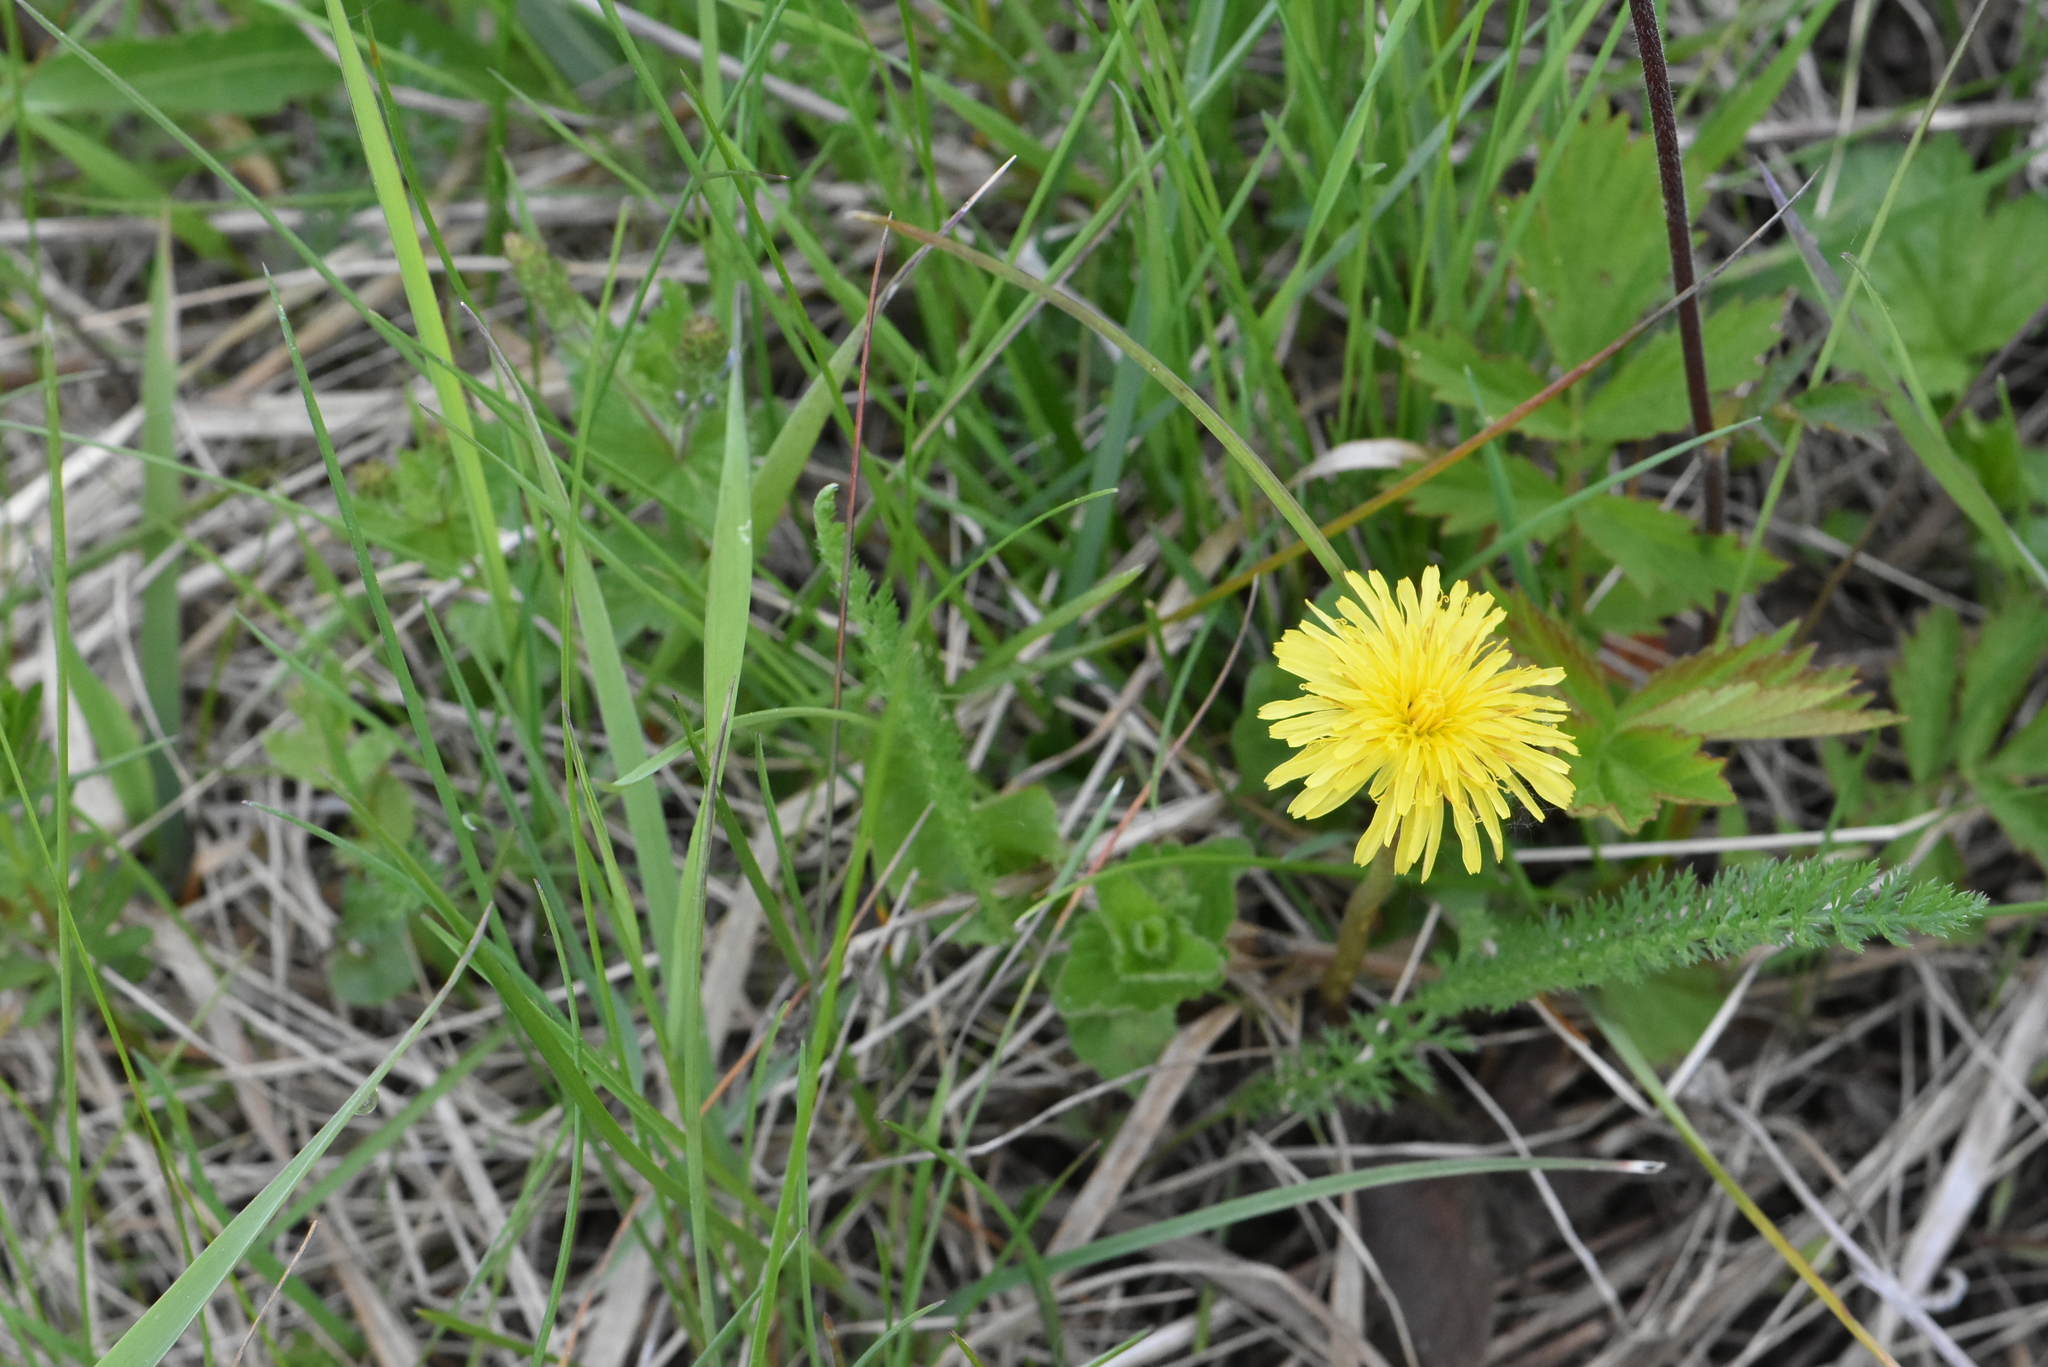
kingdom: Plantae
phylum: Tracheophyta
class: Magnoliopsida
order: Asterales
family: Asteraceae
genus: Taraxacum
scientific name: Taraxacum officinale
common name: Common dandelion
